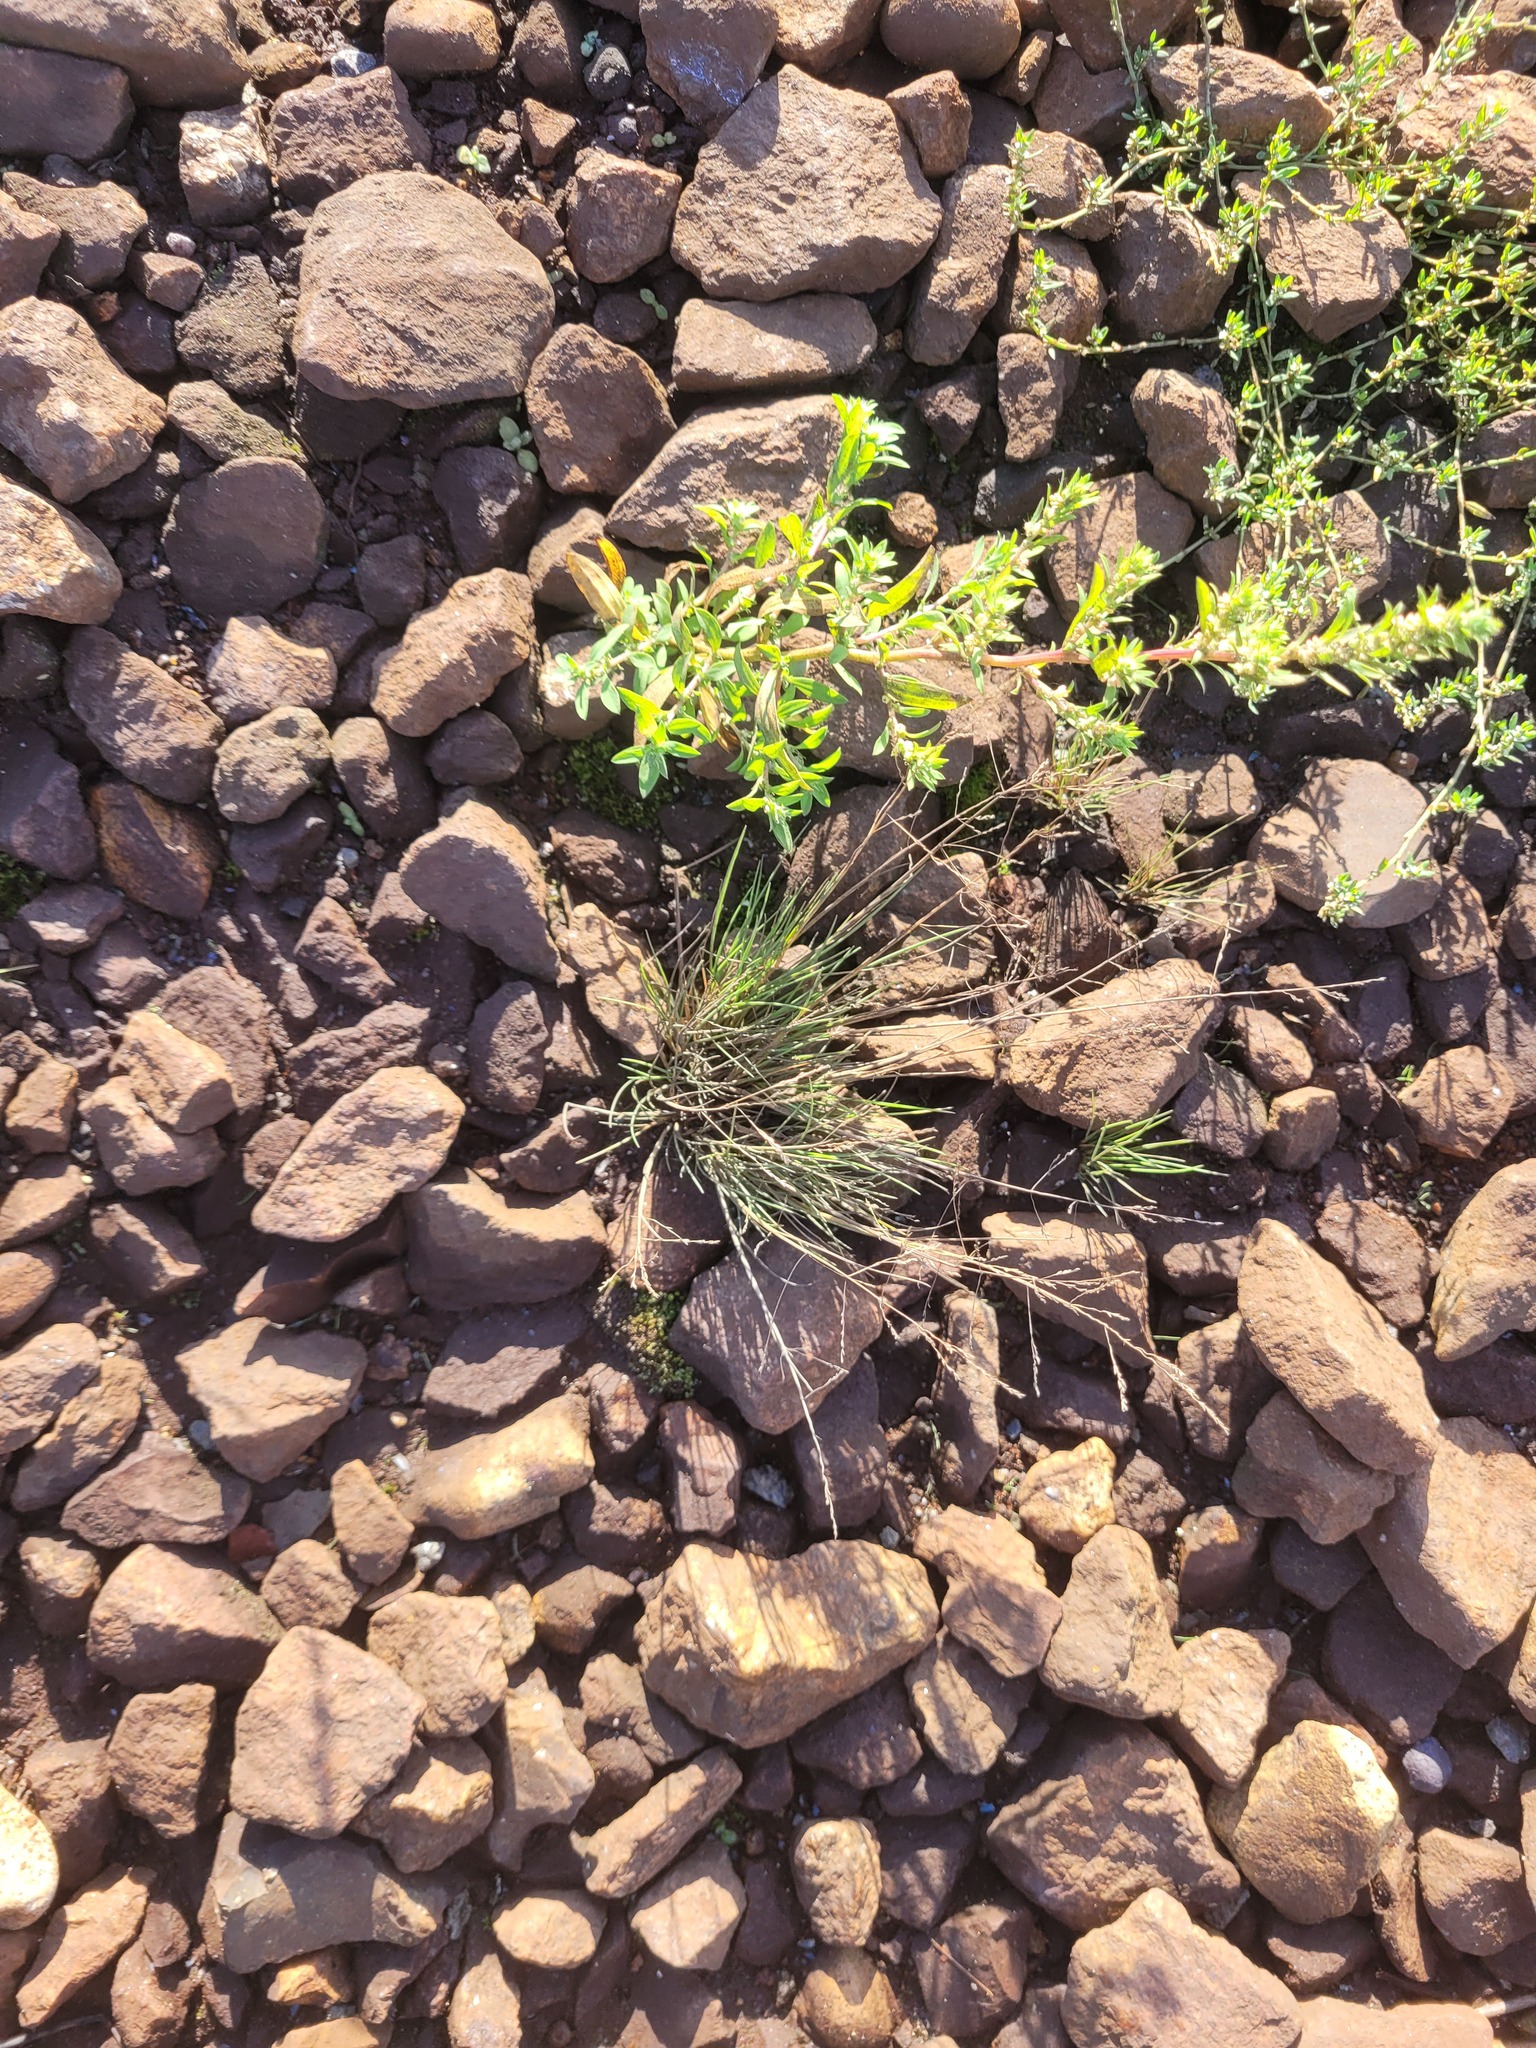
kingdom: Plantae
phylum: Tracheophyta
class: Liliopsida
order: Poales
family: Poaceae
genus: Puccinellia
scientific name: Puccinellia distans
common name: Weeping alkaligrass
